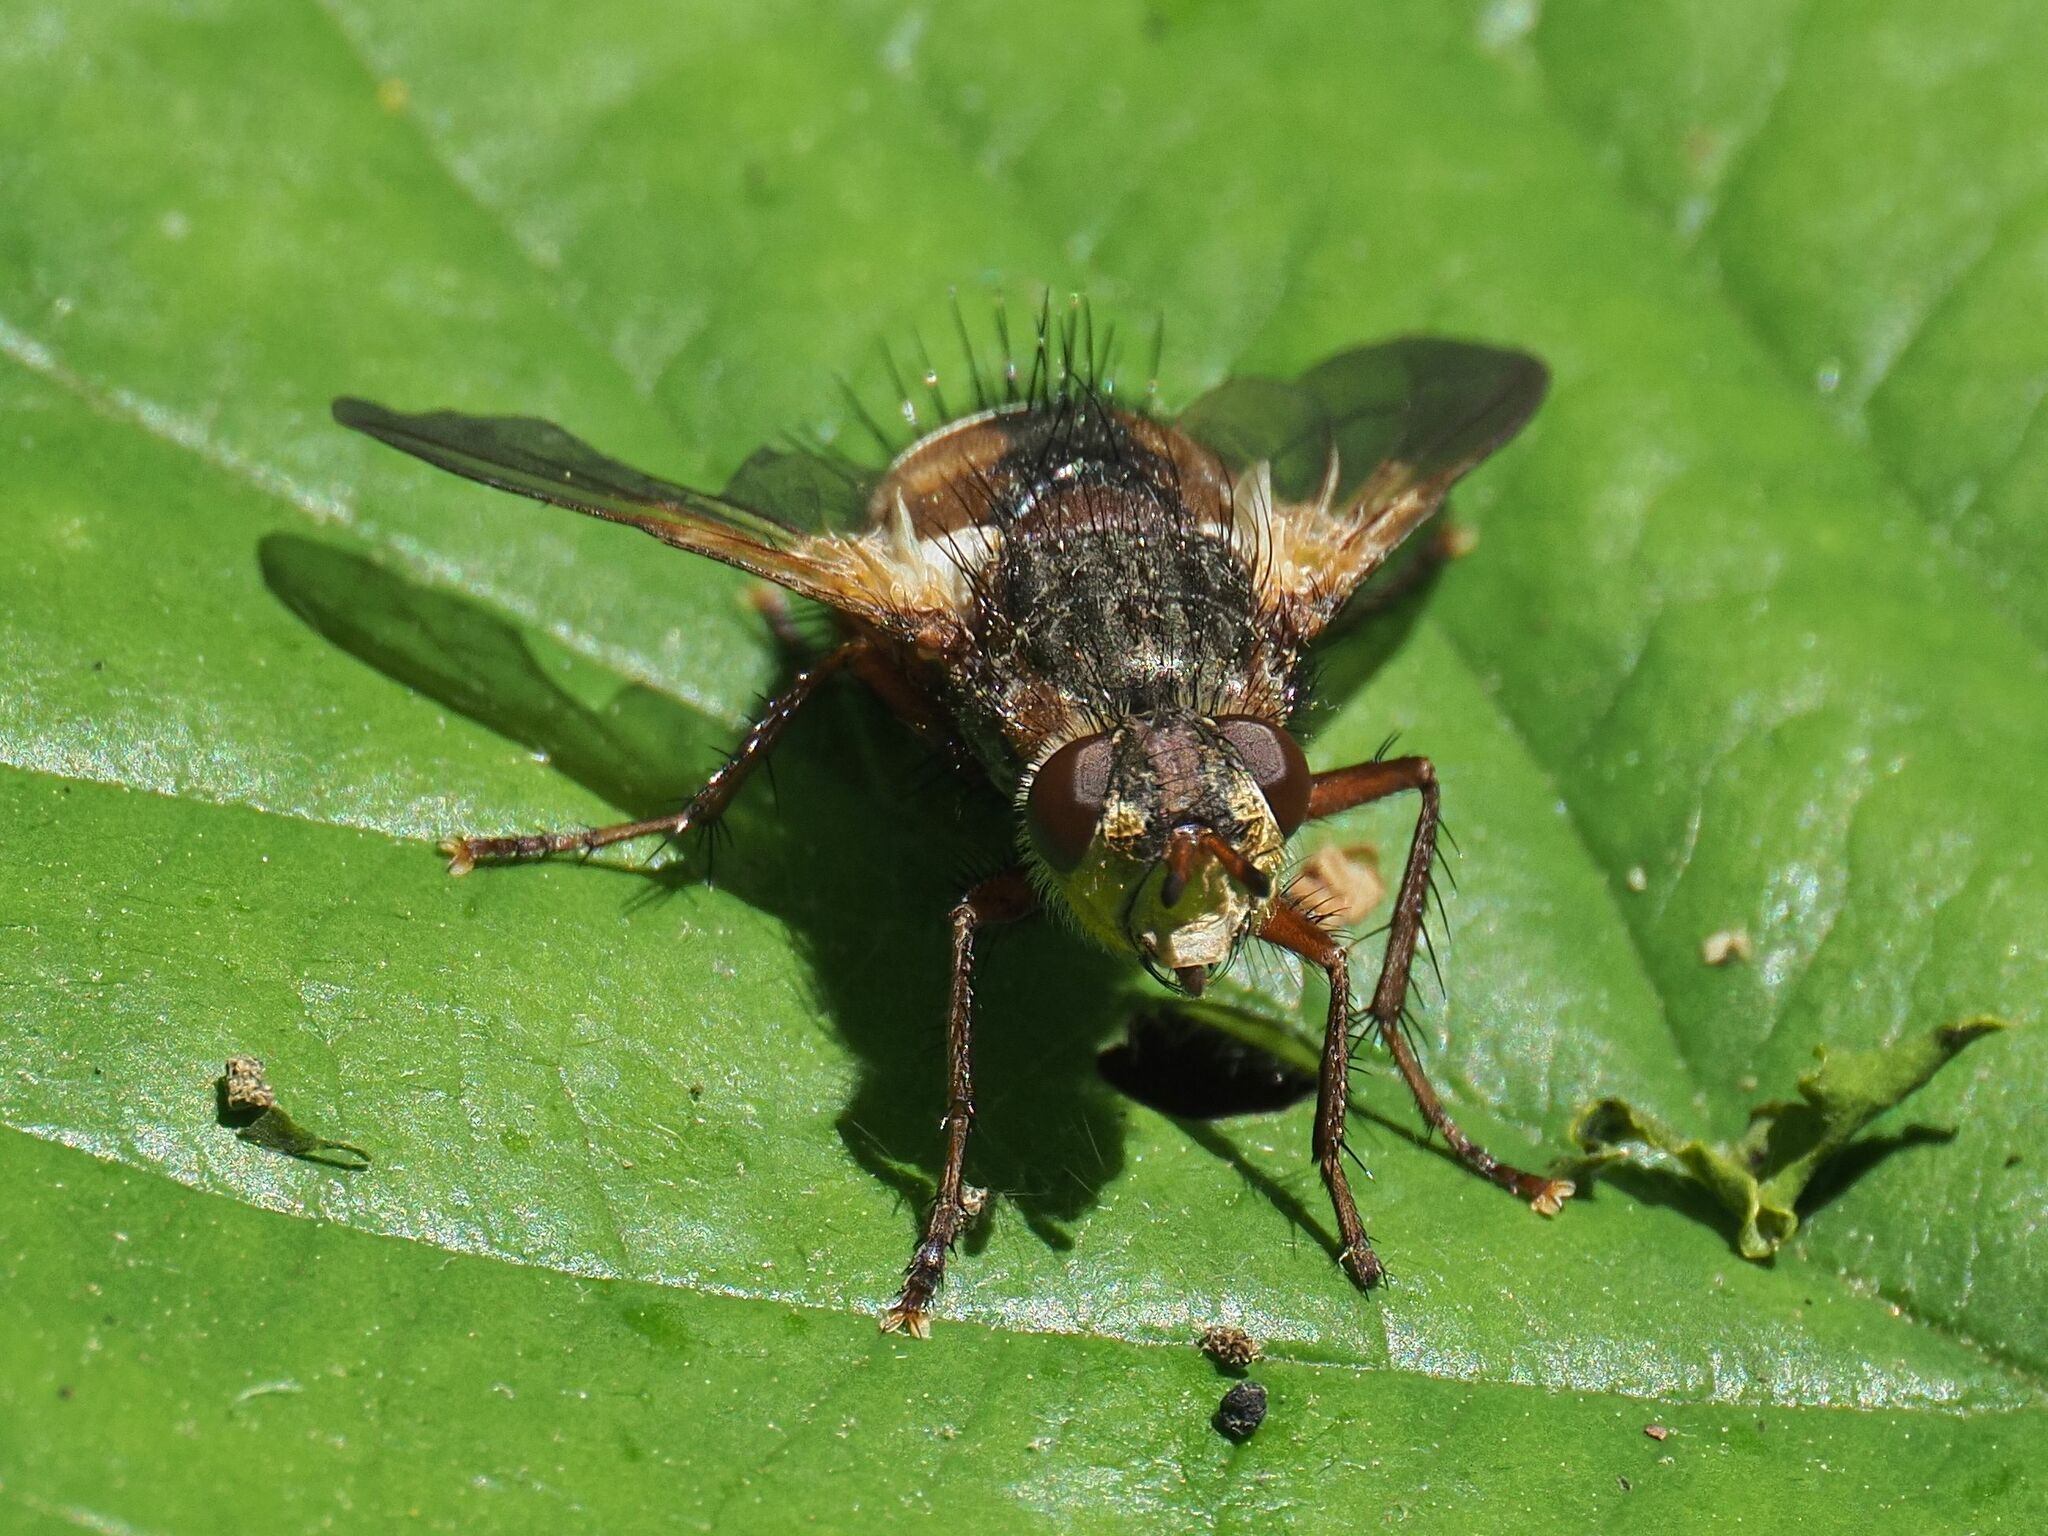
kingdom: Animalia
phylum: Arthropoda
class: Insecta
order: Diptera
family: Tachinidae
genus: Tachina
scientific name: Tachina fera
